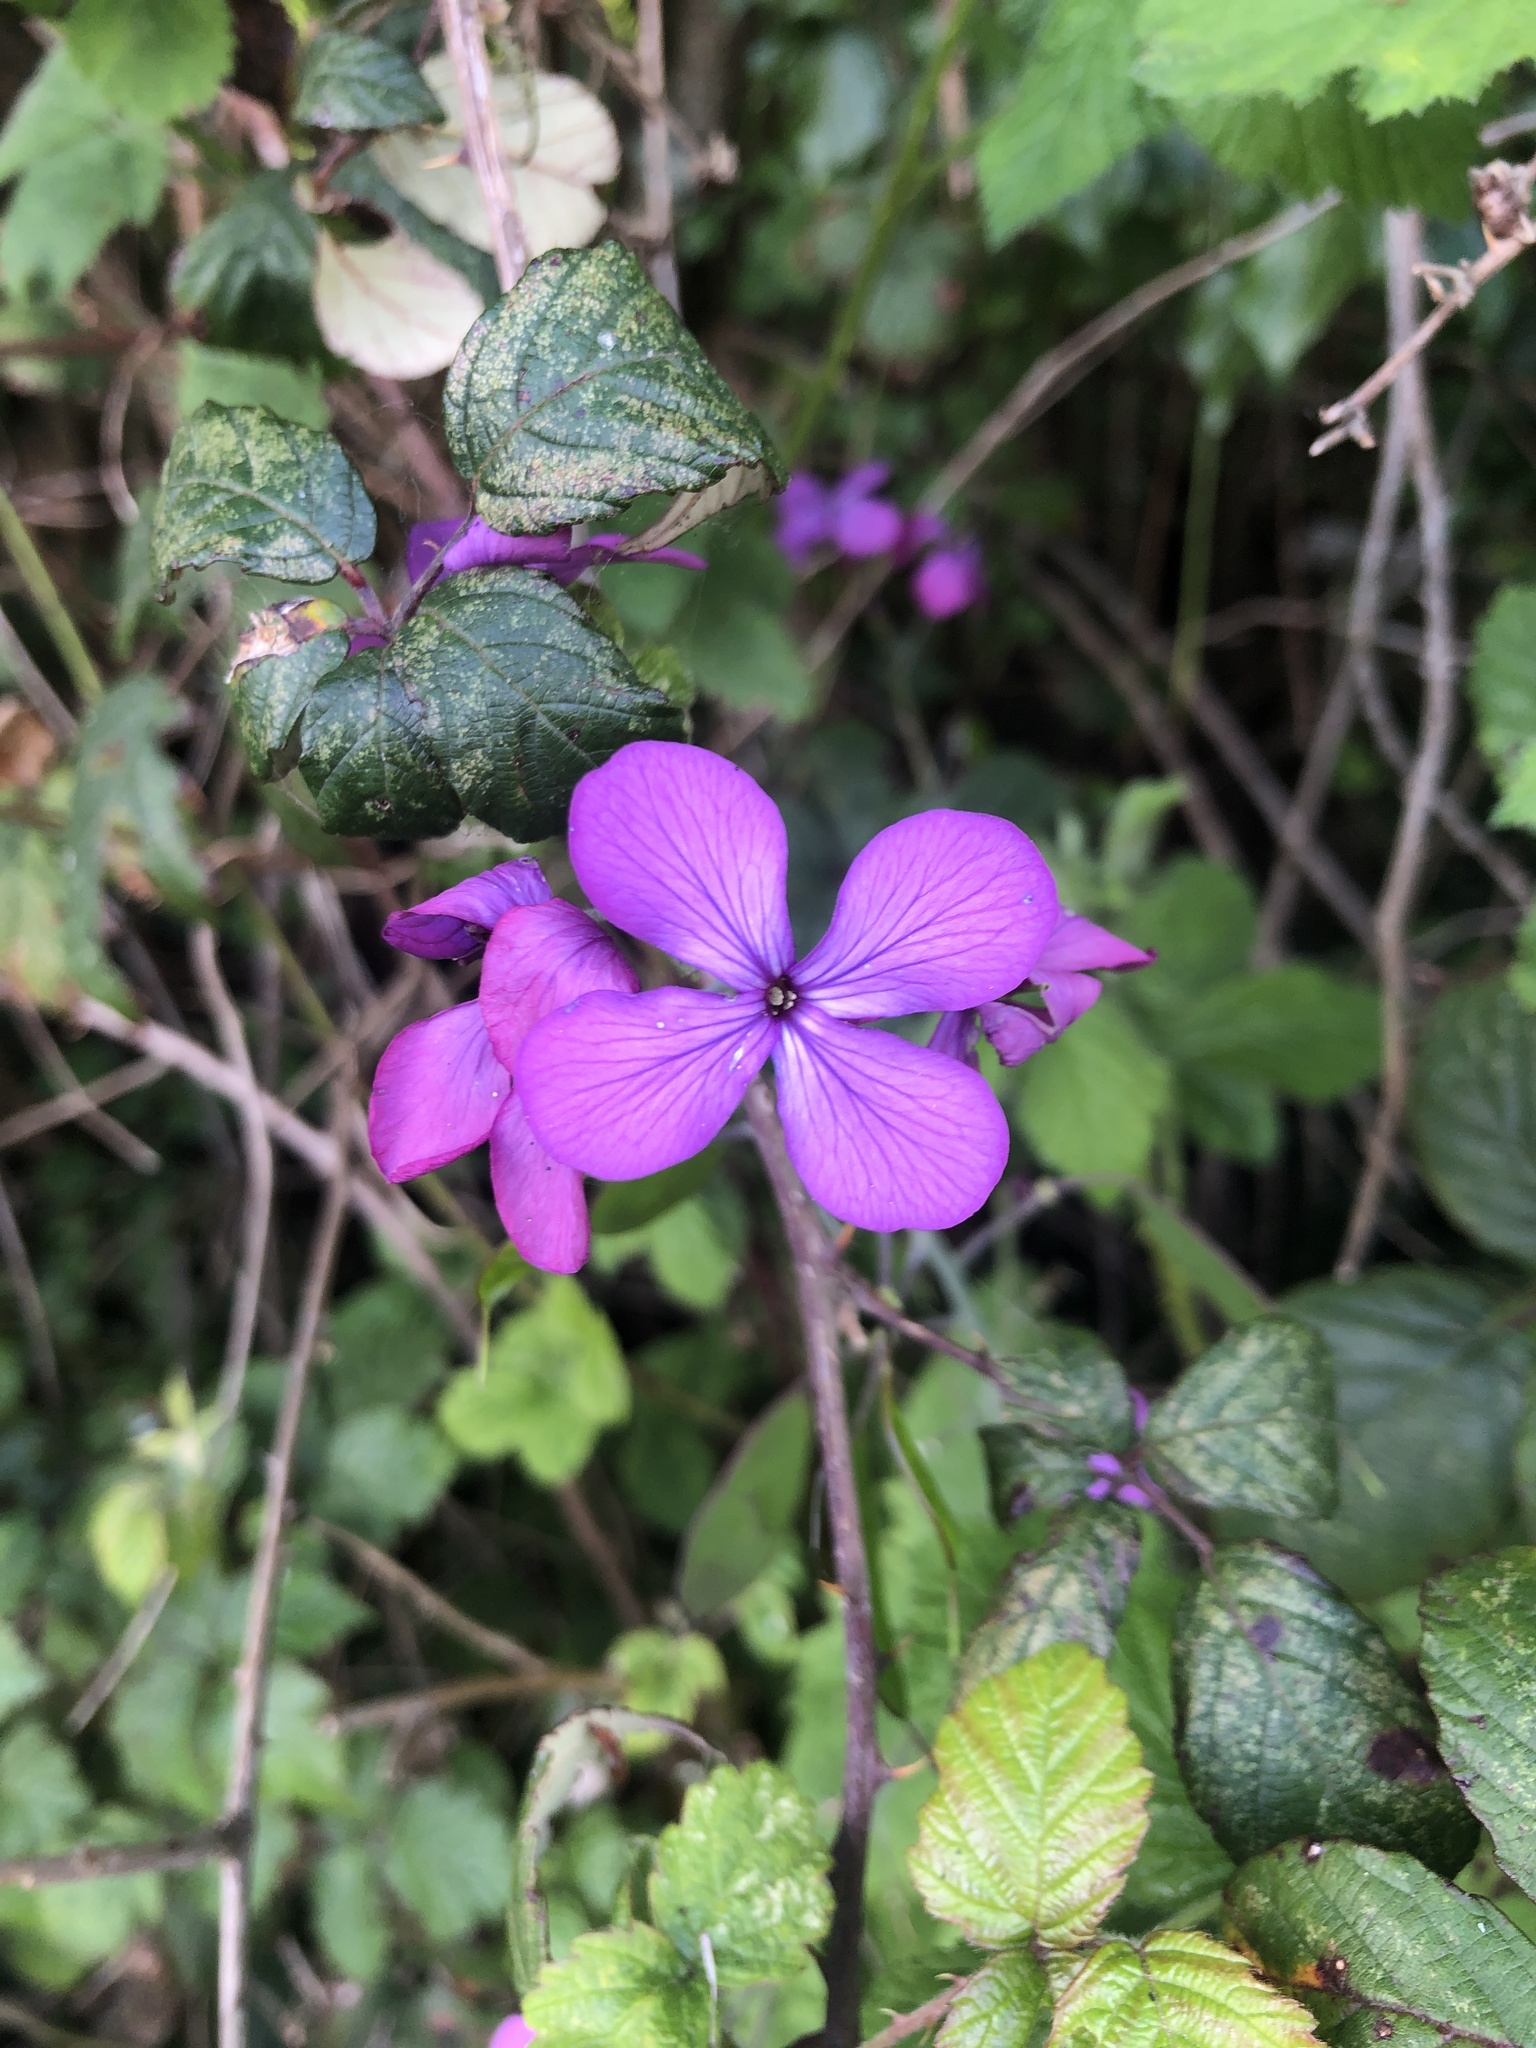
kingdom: Plantae
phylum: Tracheophyta
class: Magnoliopsida
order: Brassicales
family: Brassicaceae
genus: Lunaria
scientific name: Lunaria annua
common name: Honesty
